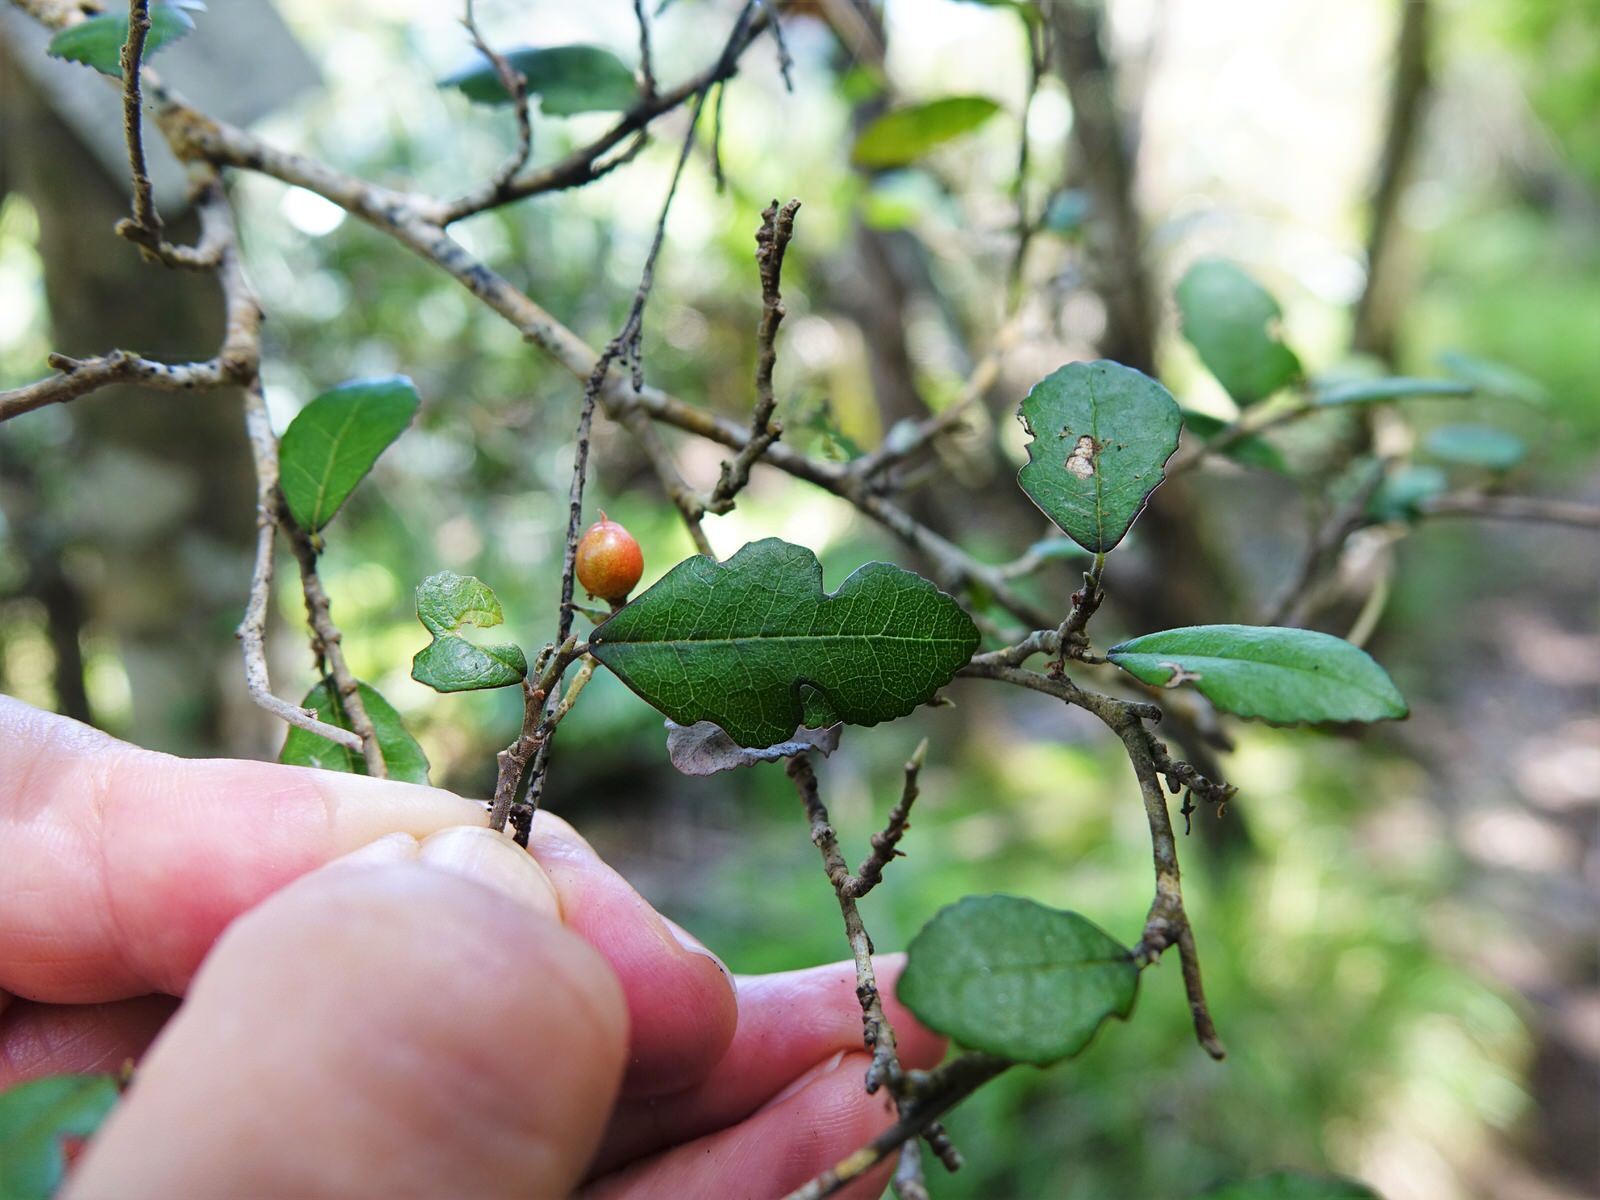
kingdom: Plantae
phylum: Tracheophyta
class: Magnoliopsida
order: Rosales
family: Moraceae
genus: Paratrophis
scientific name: Paratrophis microphylla
